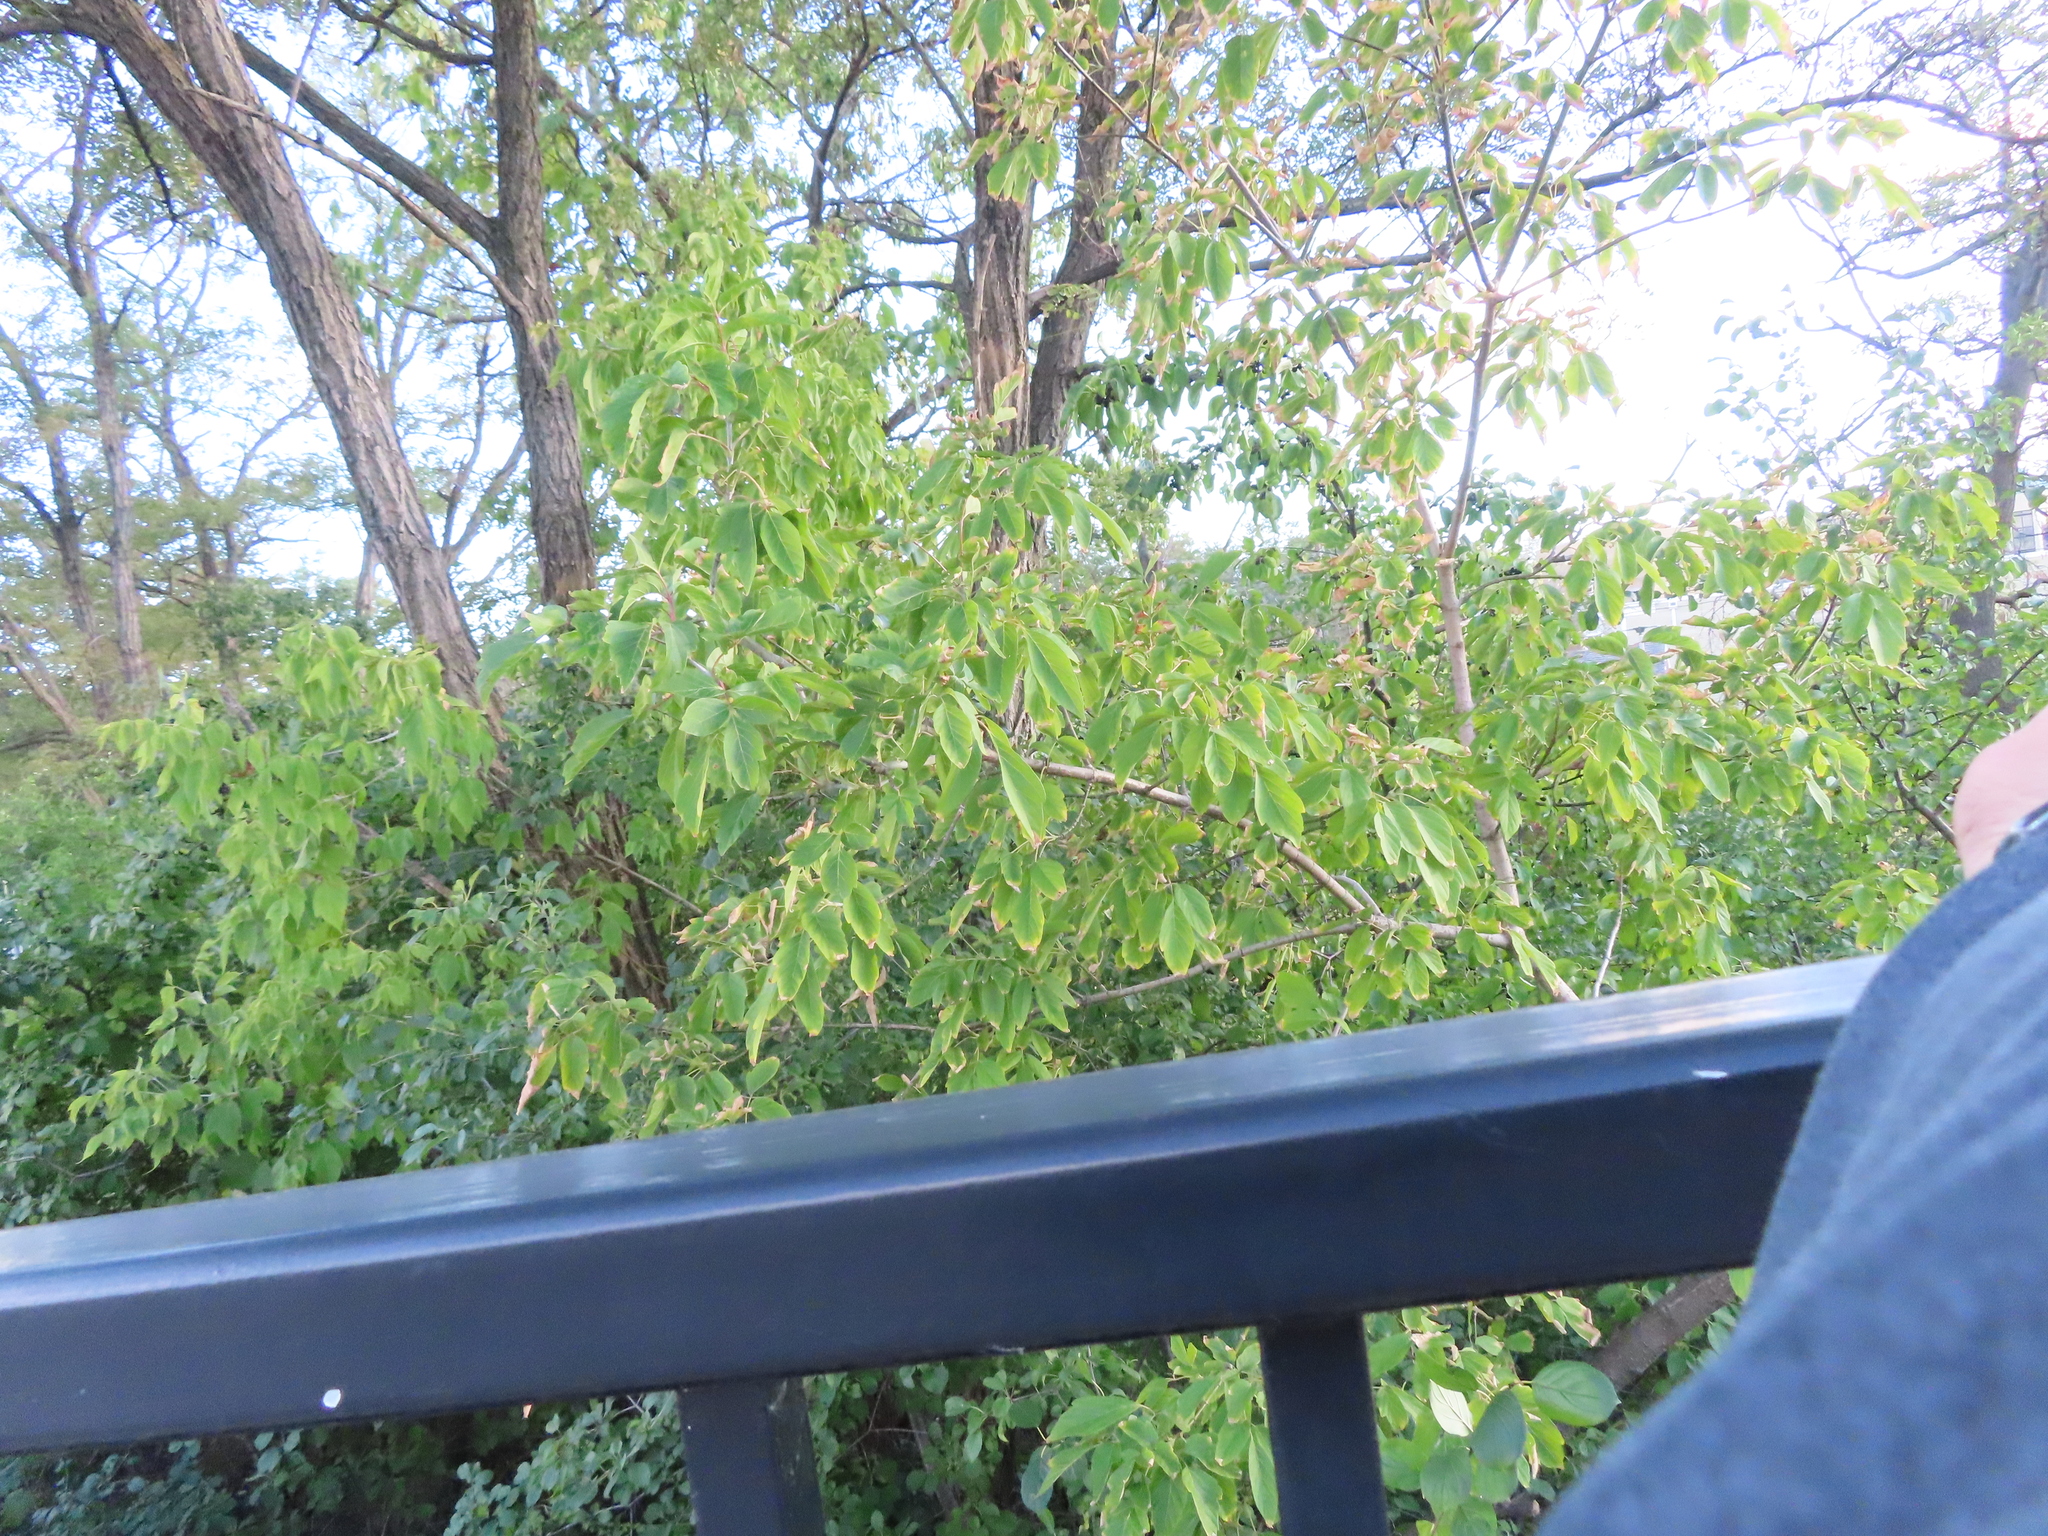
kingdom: Plantae
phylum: Tracheophyta
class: Magnoliopsida
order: Sapindales
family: Sapindaceae
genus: Acer
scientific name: Acer negundo
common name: Ashleaf maple
